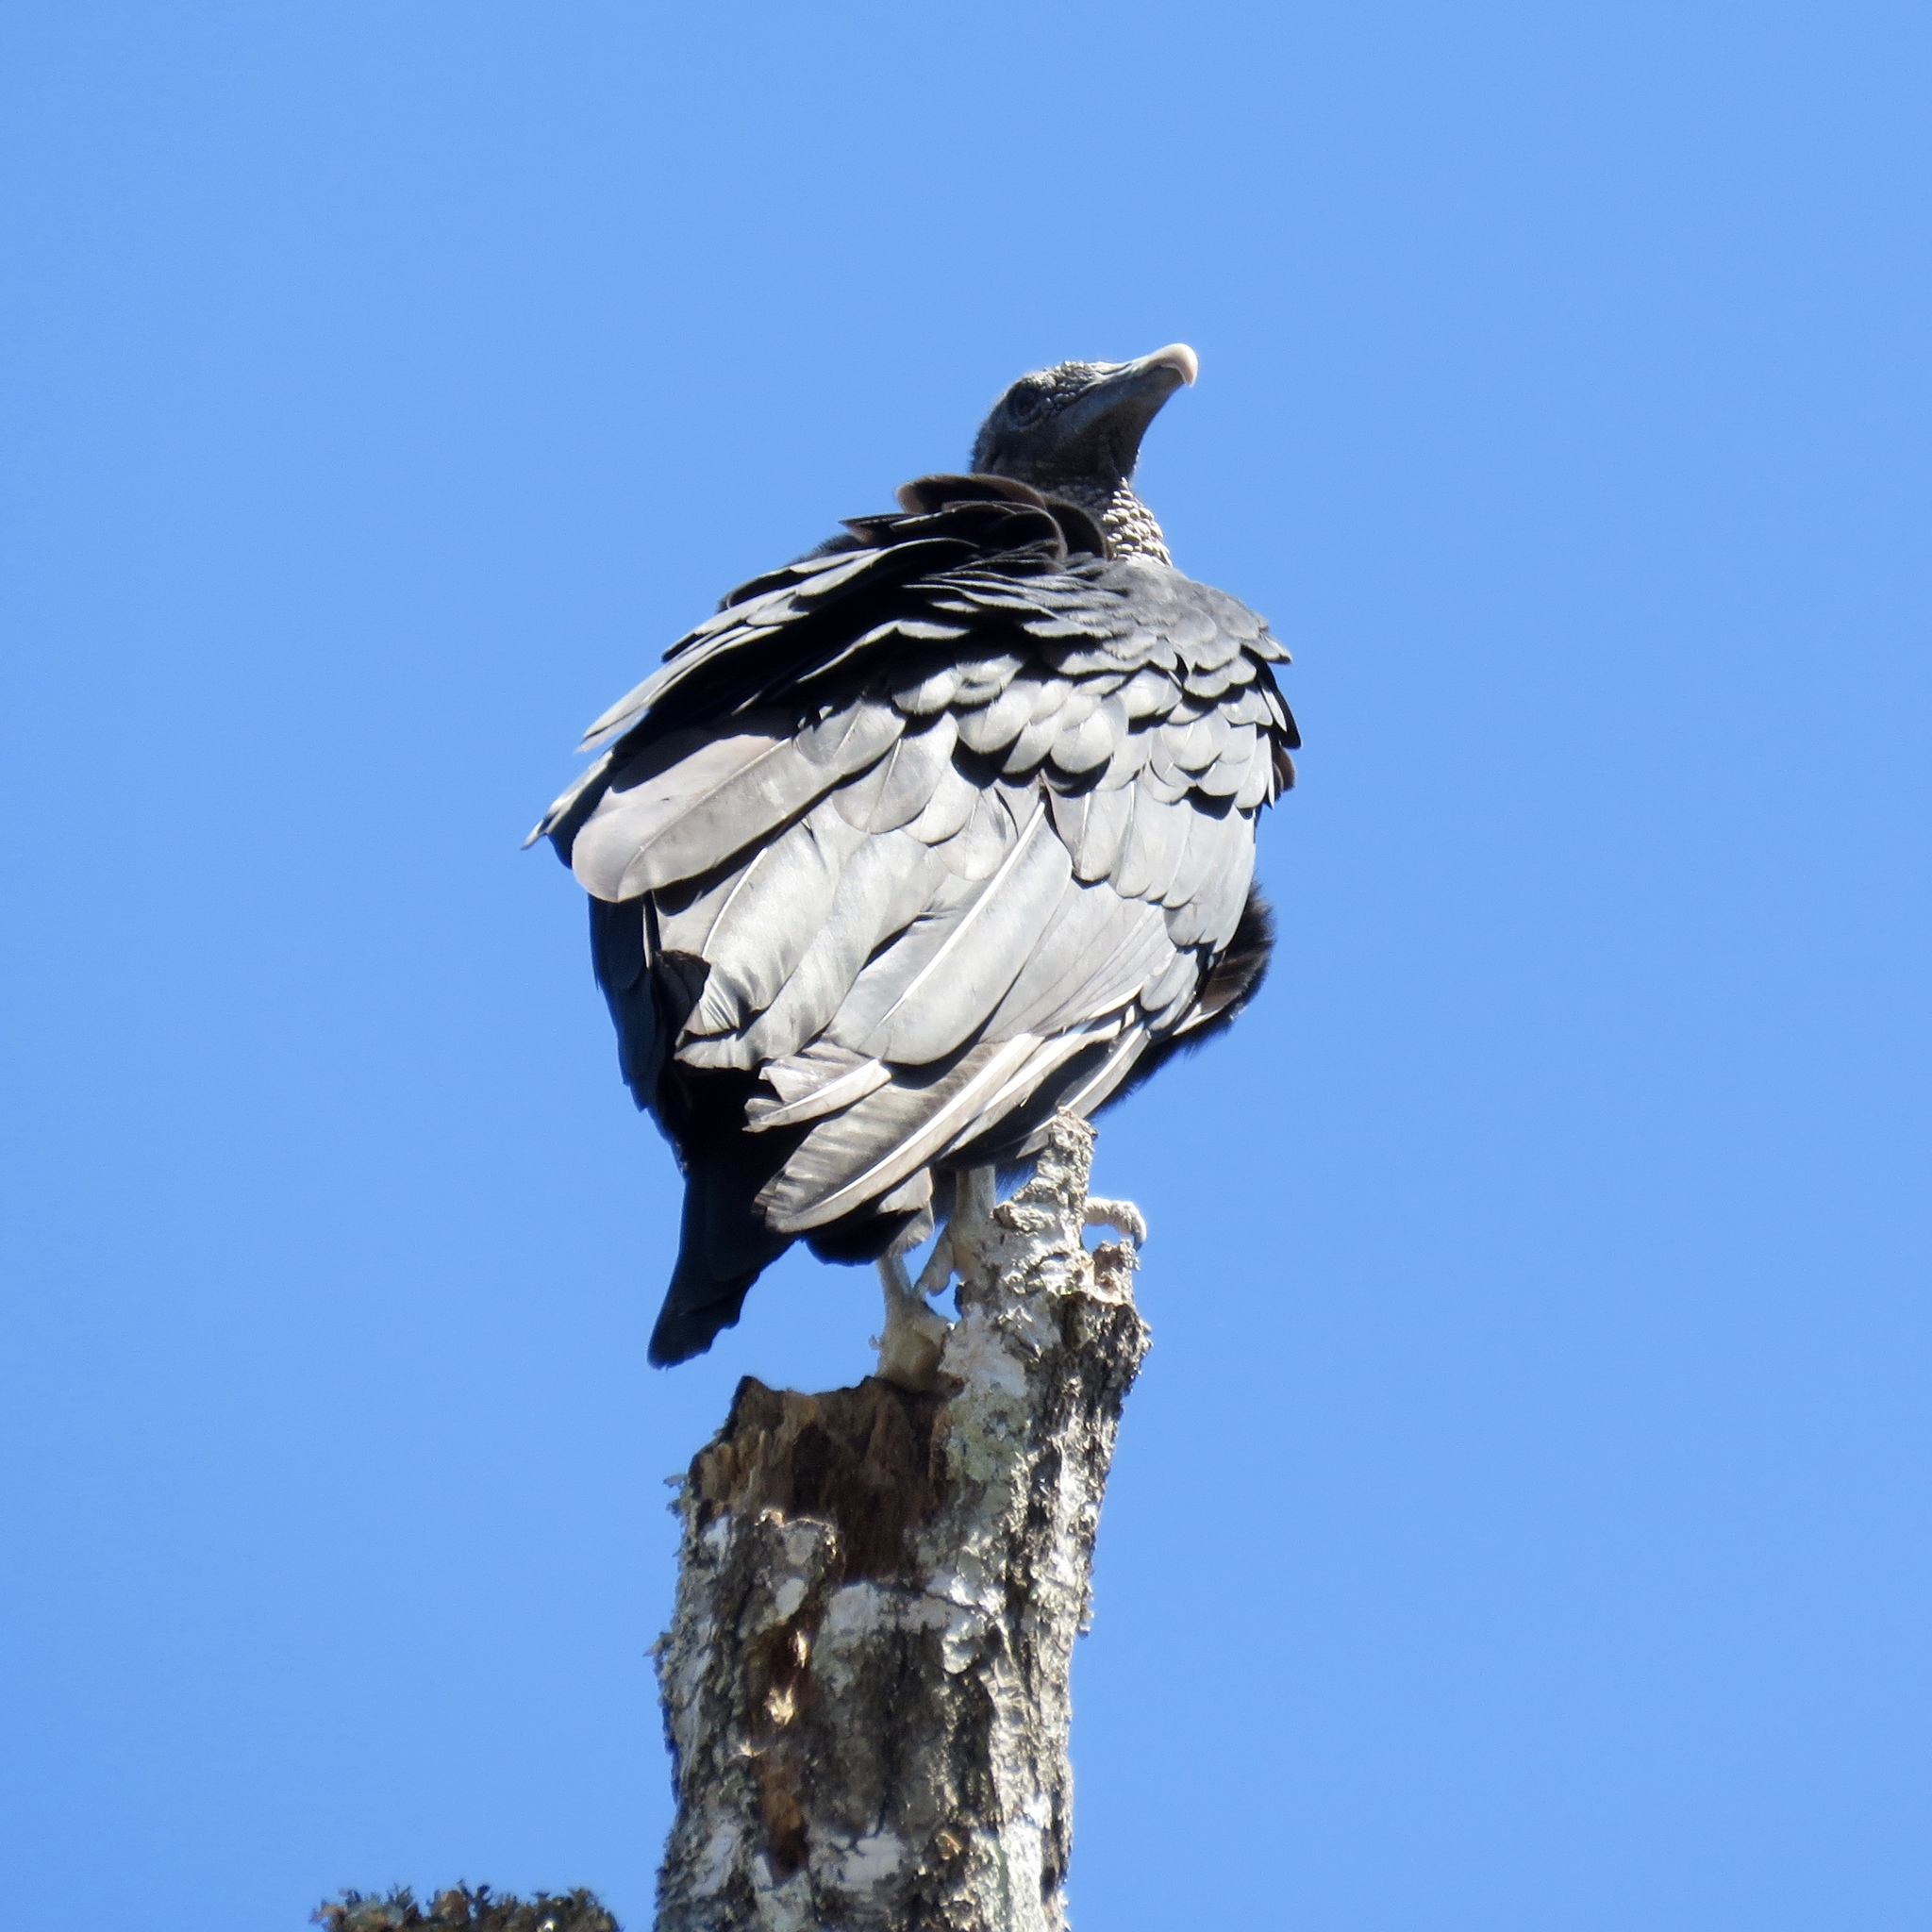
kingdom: Animalia
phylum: Chordata
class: Aves
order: Accipitriformes
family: Cathartidae
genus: Coragyps
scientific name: Coragyps atratus
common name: Black vulture
